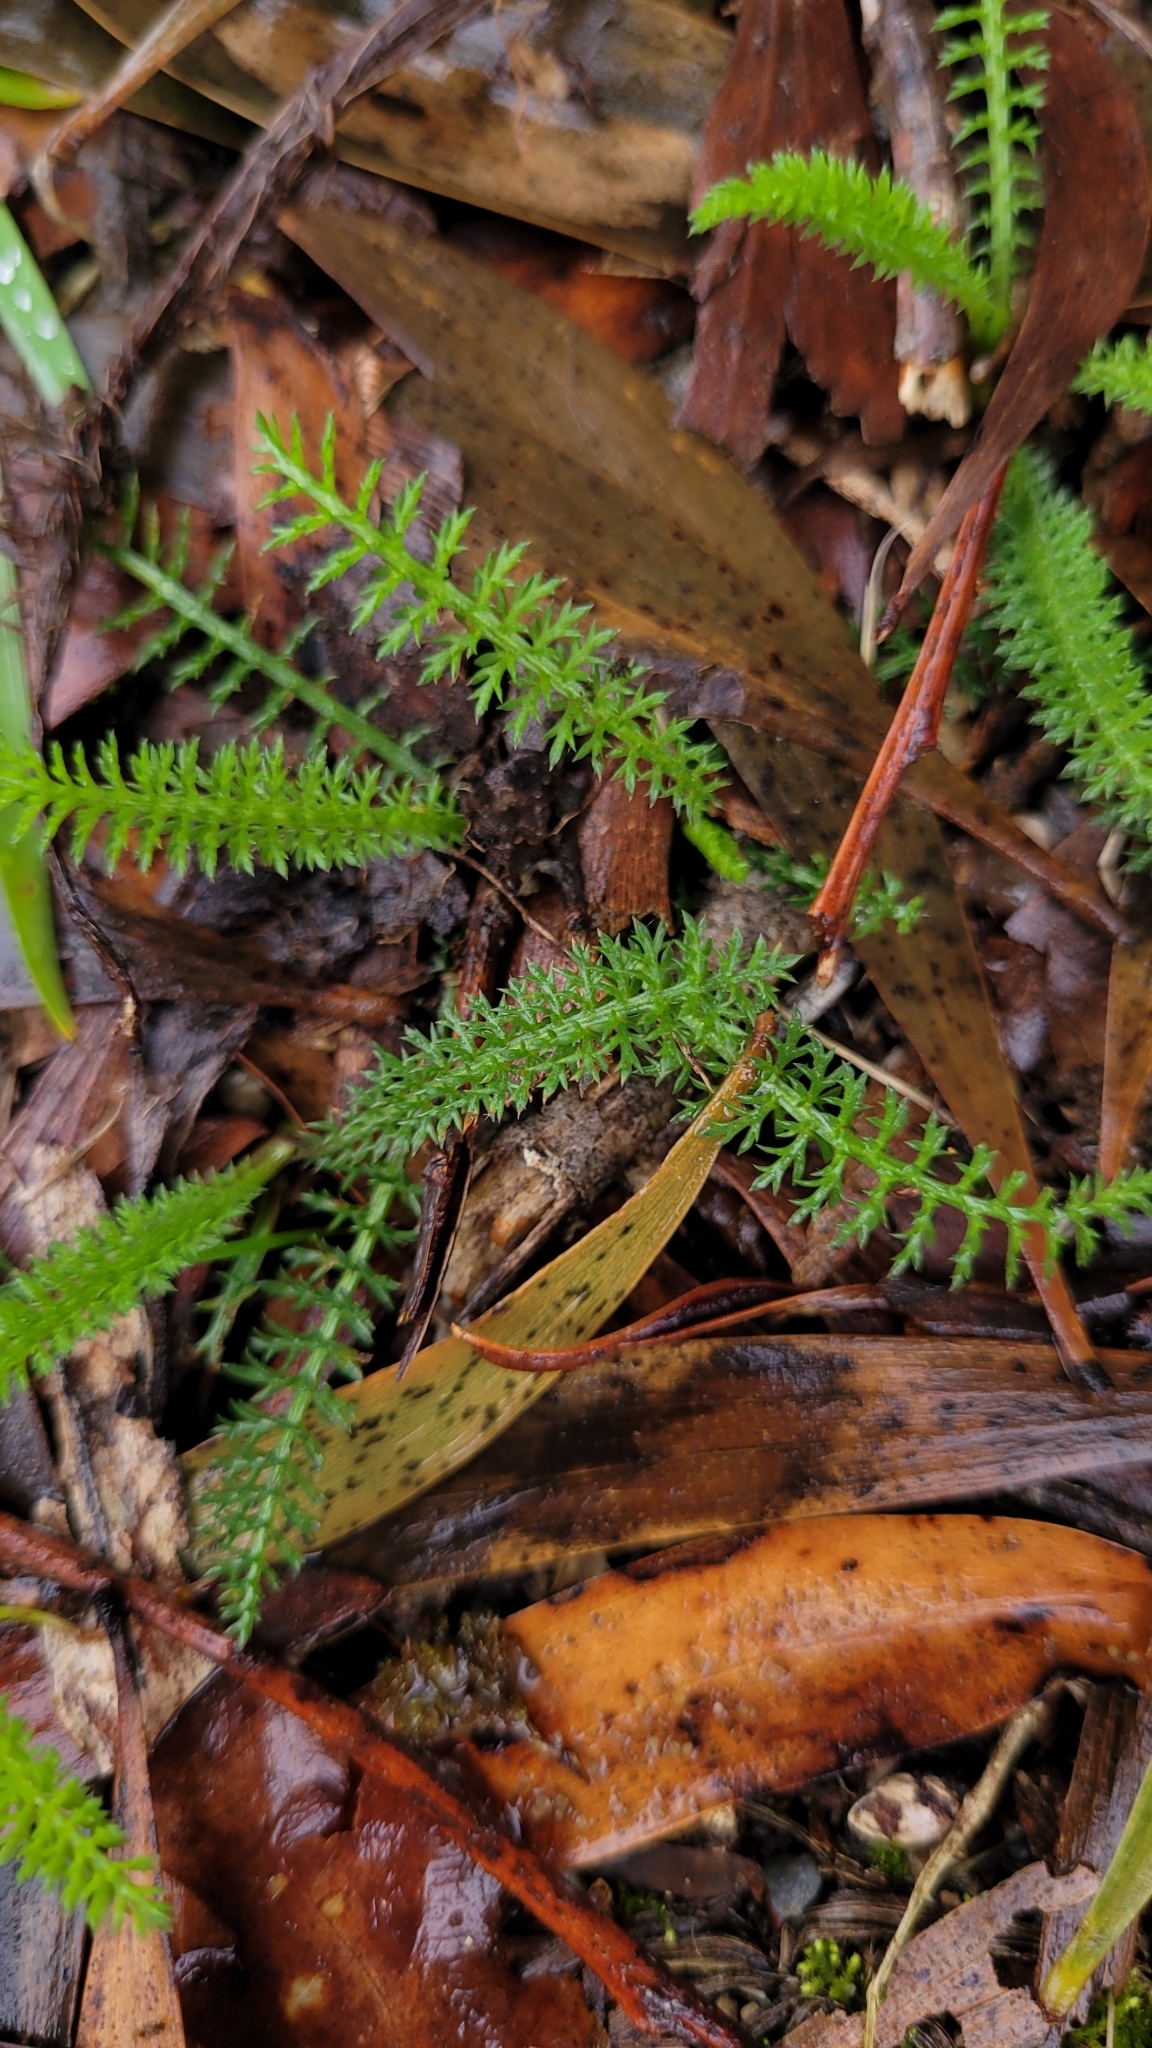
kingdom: Plantae
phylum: Tracheophyta
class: Magnoliopsida
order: Asterales
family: Asteraceae
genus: Achillea
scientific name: Achillea millefolium
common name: Yarrow
